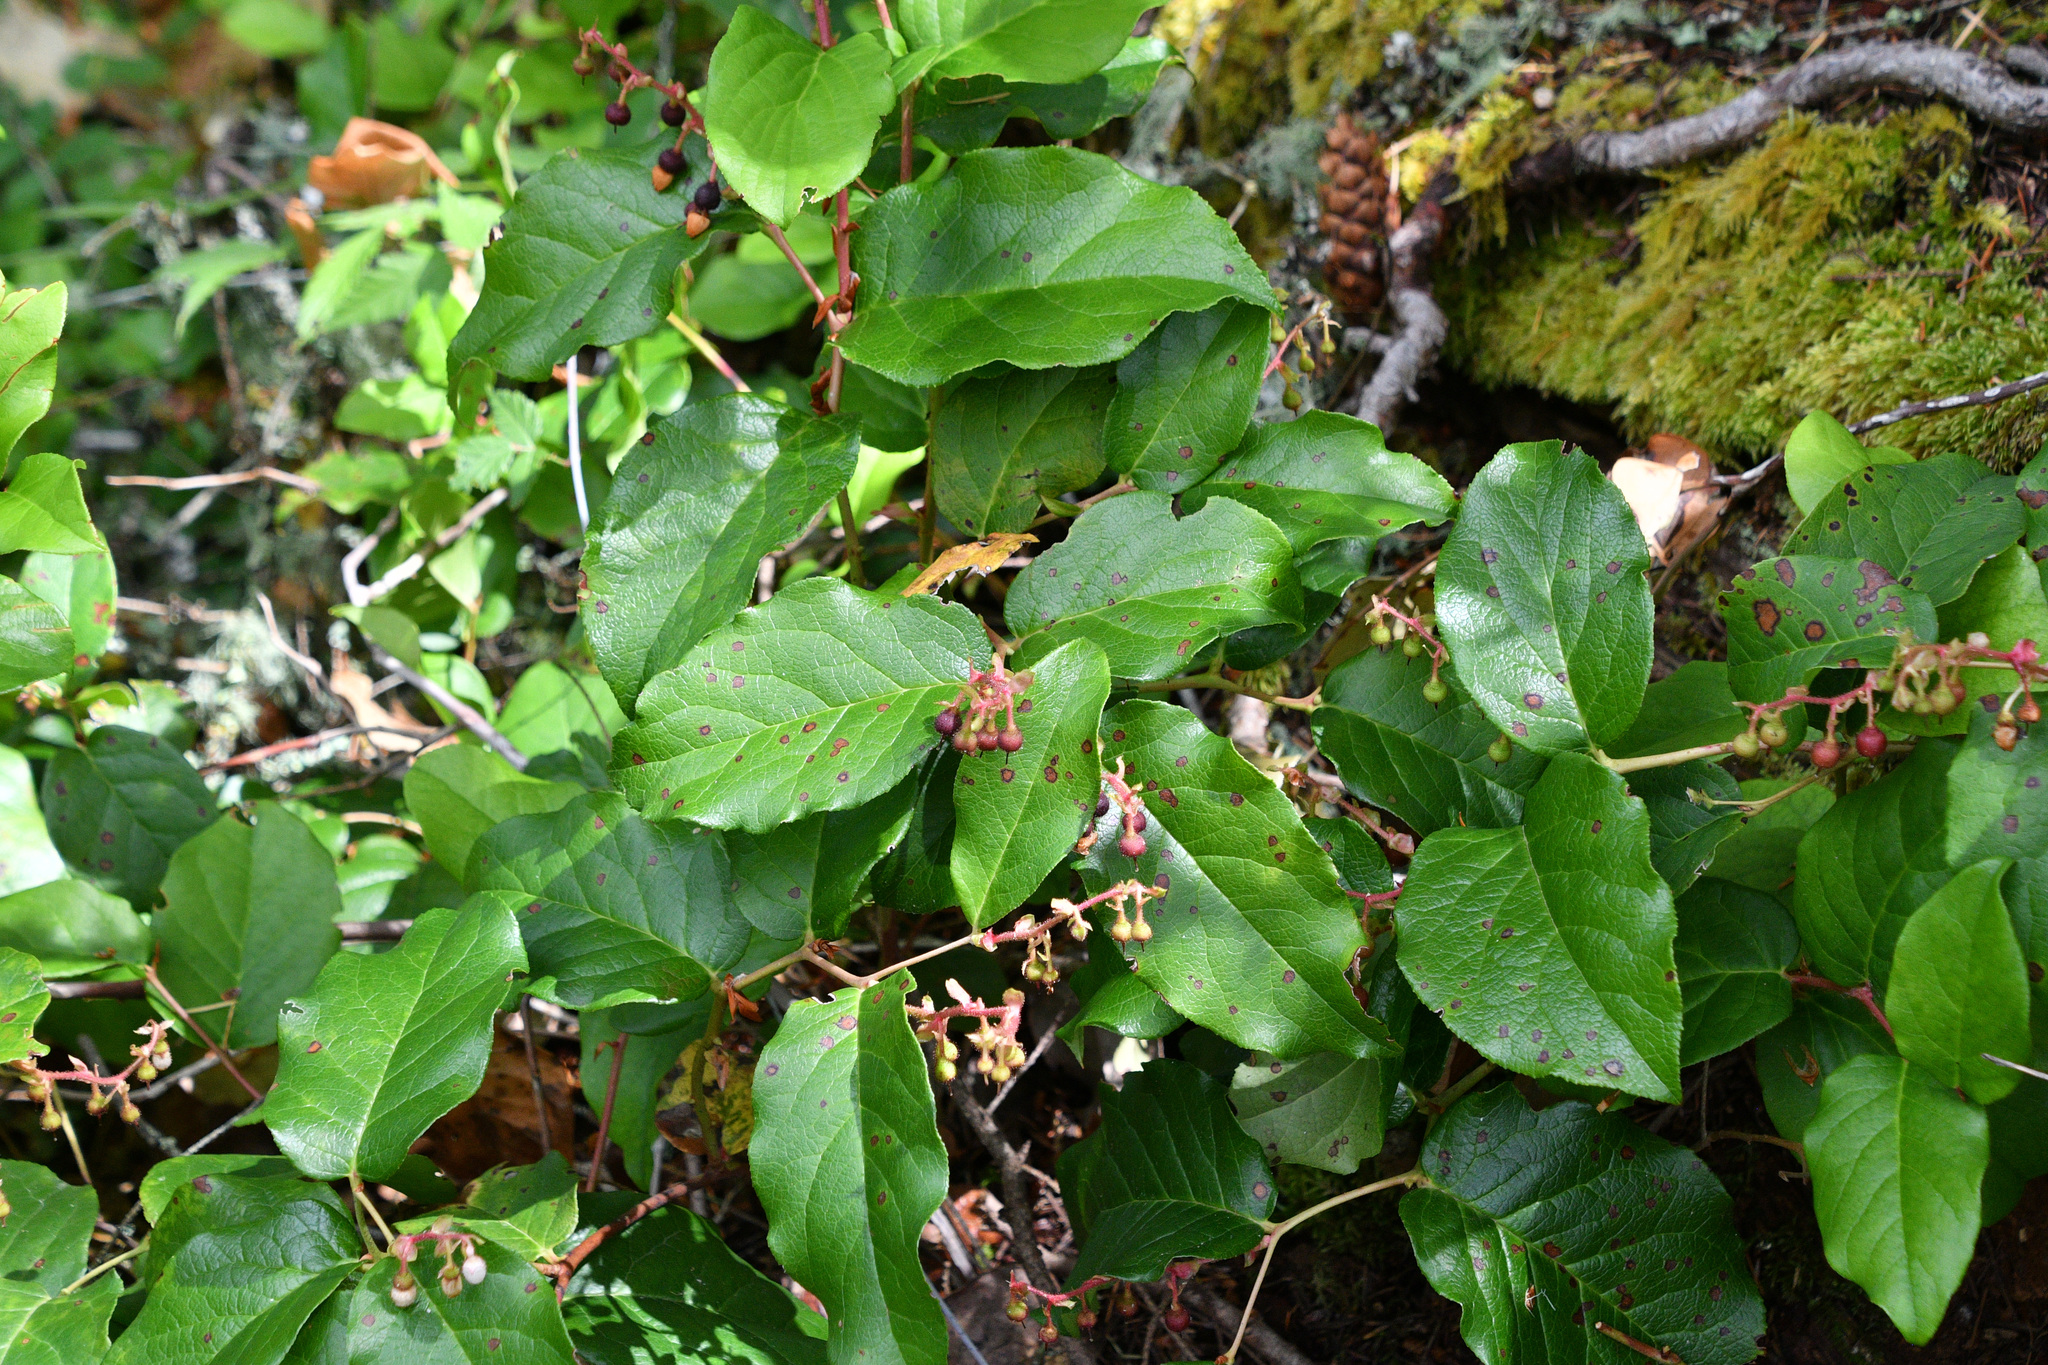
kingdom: Plantae
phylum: Tracheophyta
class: Magnoliopsida
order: Ericales
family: Ericaceae
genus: Gaultheria
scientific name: Gaultheria shallon
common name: Shallon
